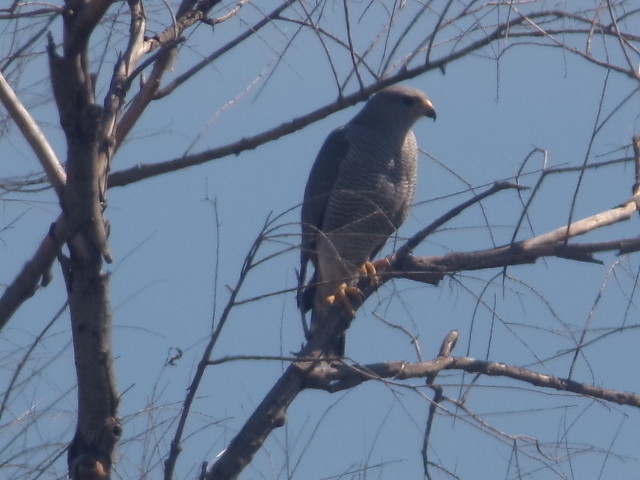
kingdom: Animalia
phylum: Chordata
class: Aves
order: Accipitriformes
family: Accipitridae
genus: Buteo
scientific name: Buteo nitidus
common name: Grey-lined hawk
